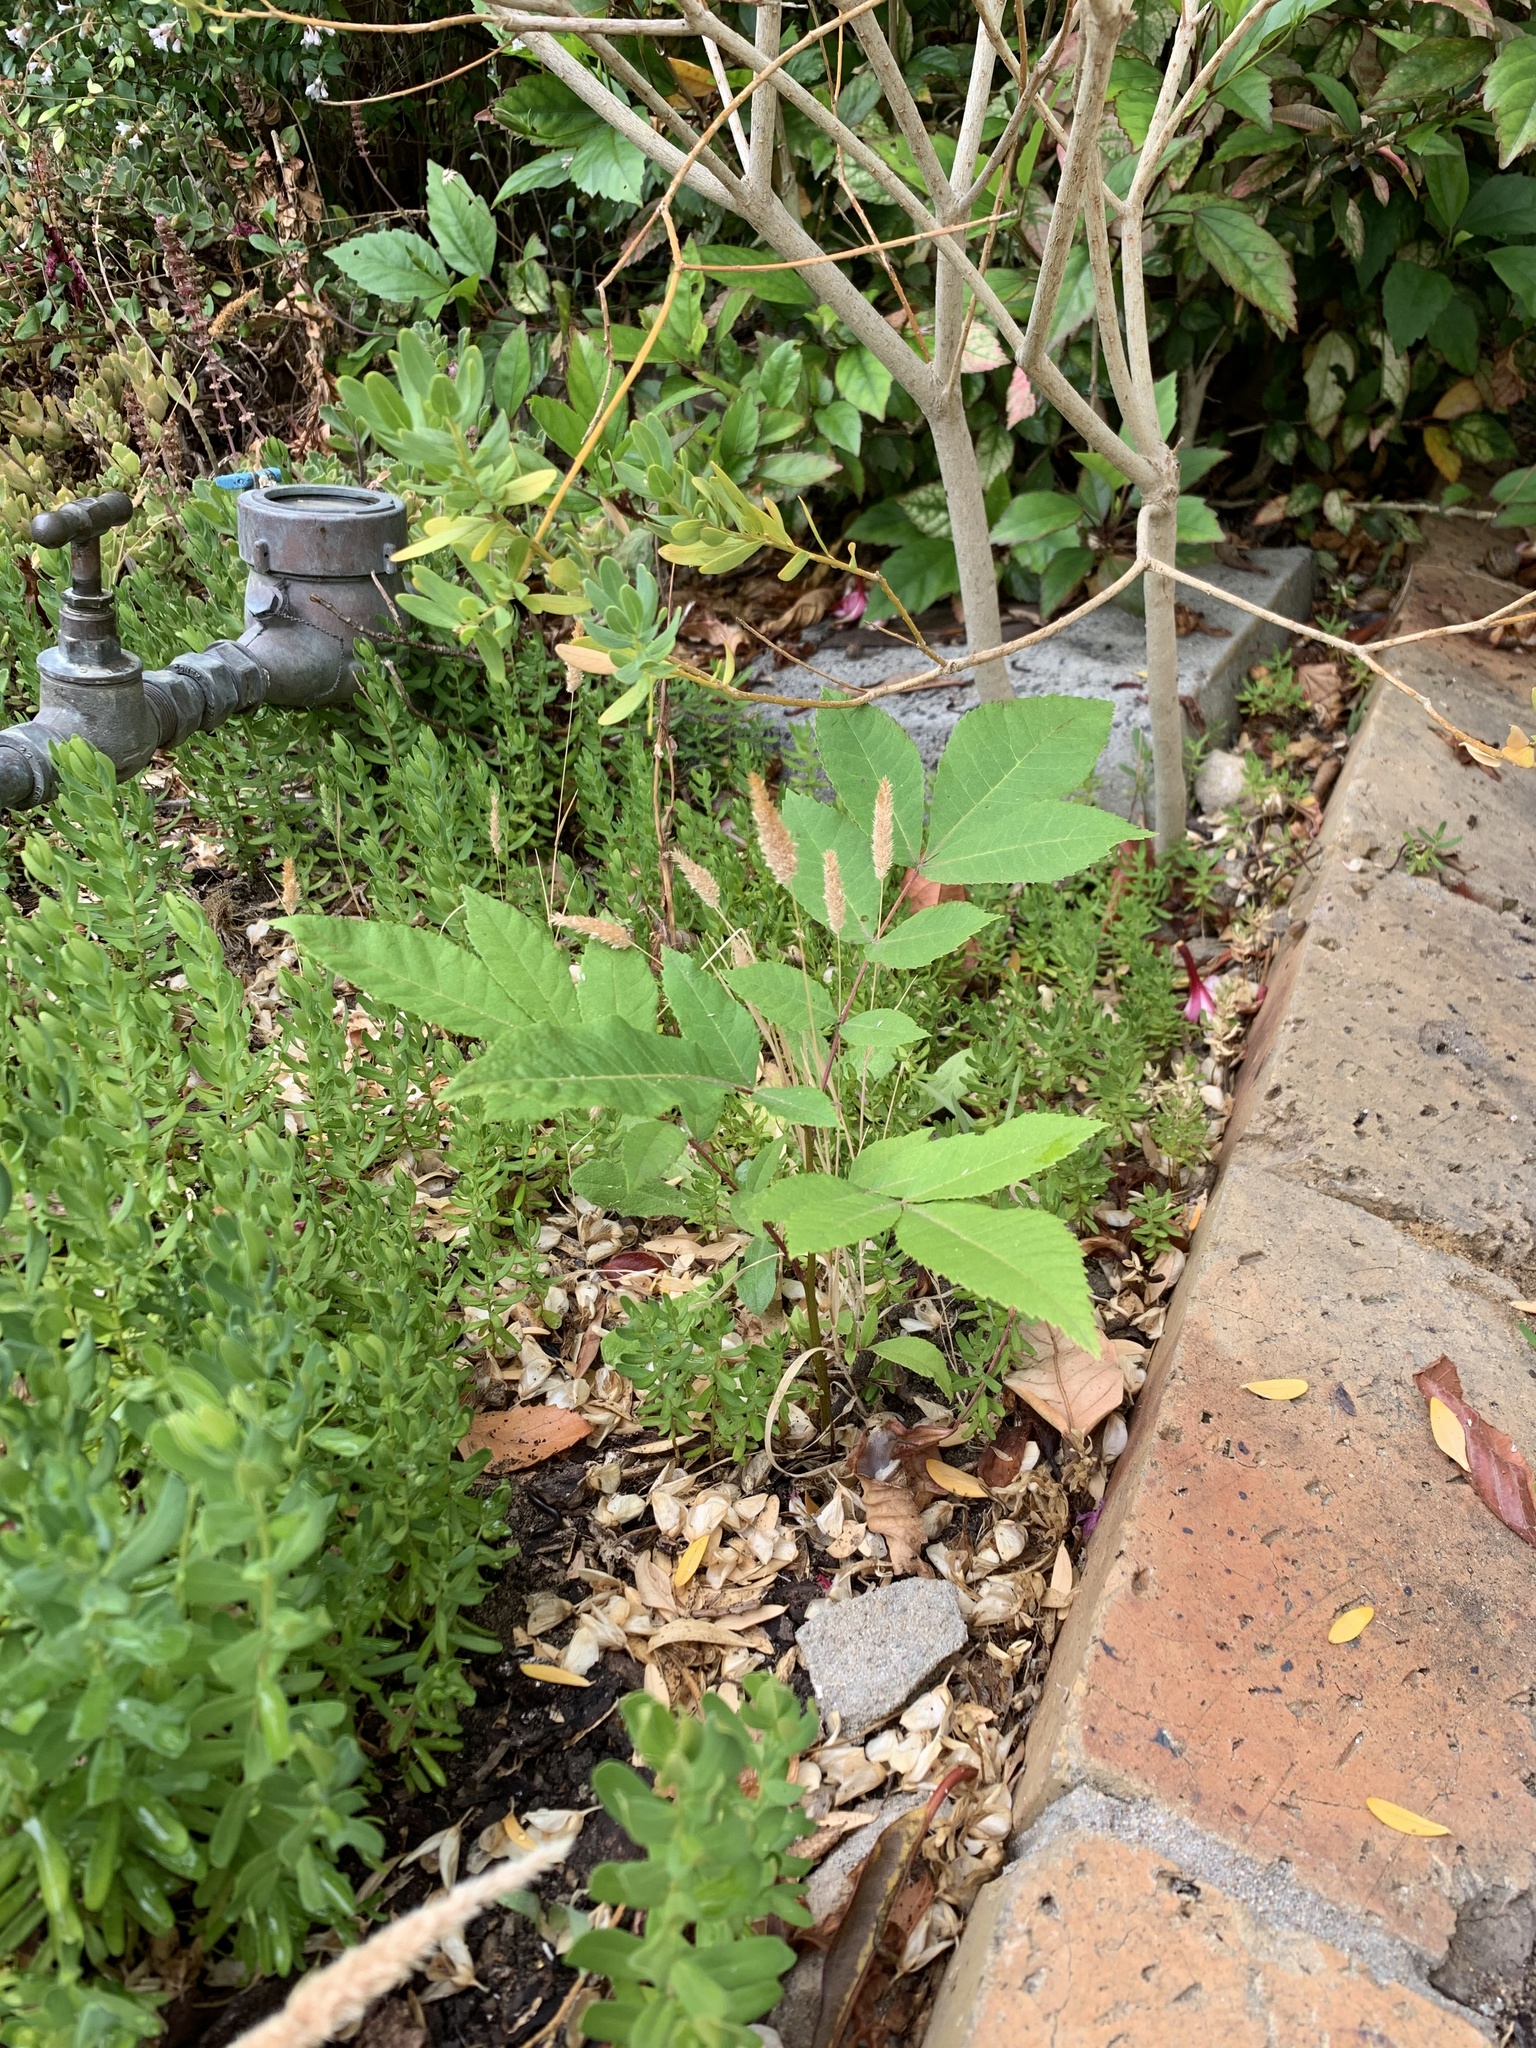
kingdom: Plantae
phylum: Tracheophyta
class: Magnoliopsida
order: Fagales
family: Juglandaceae
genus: Carya
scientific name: Carya illinoinensis
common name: Pecan
